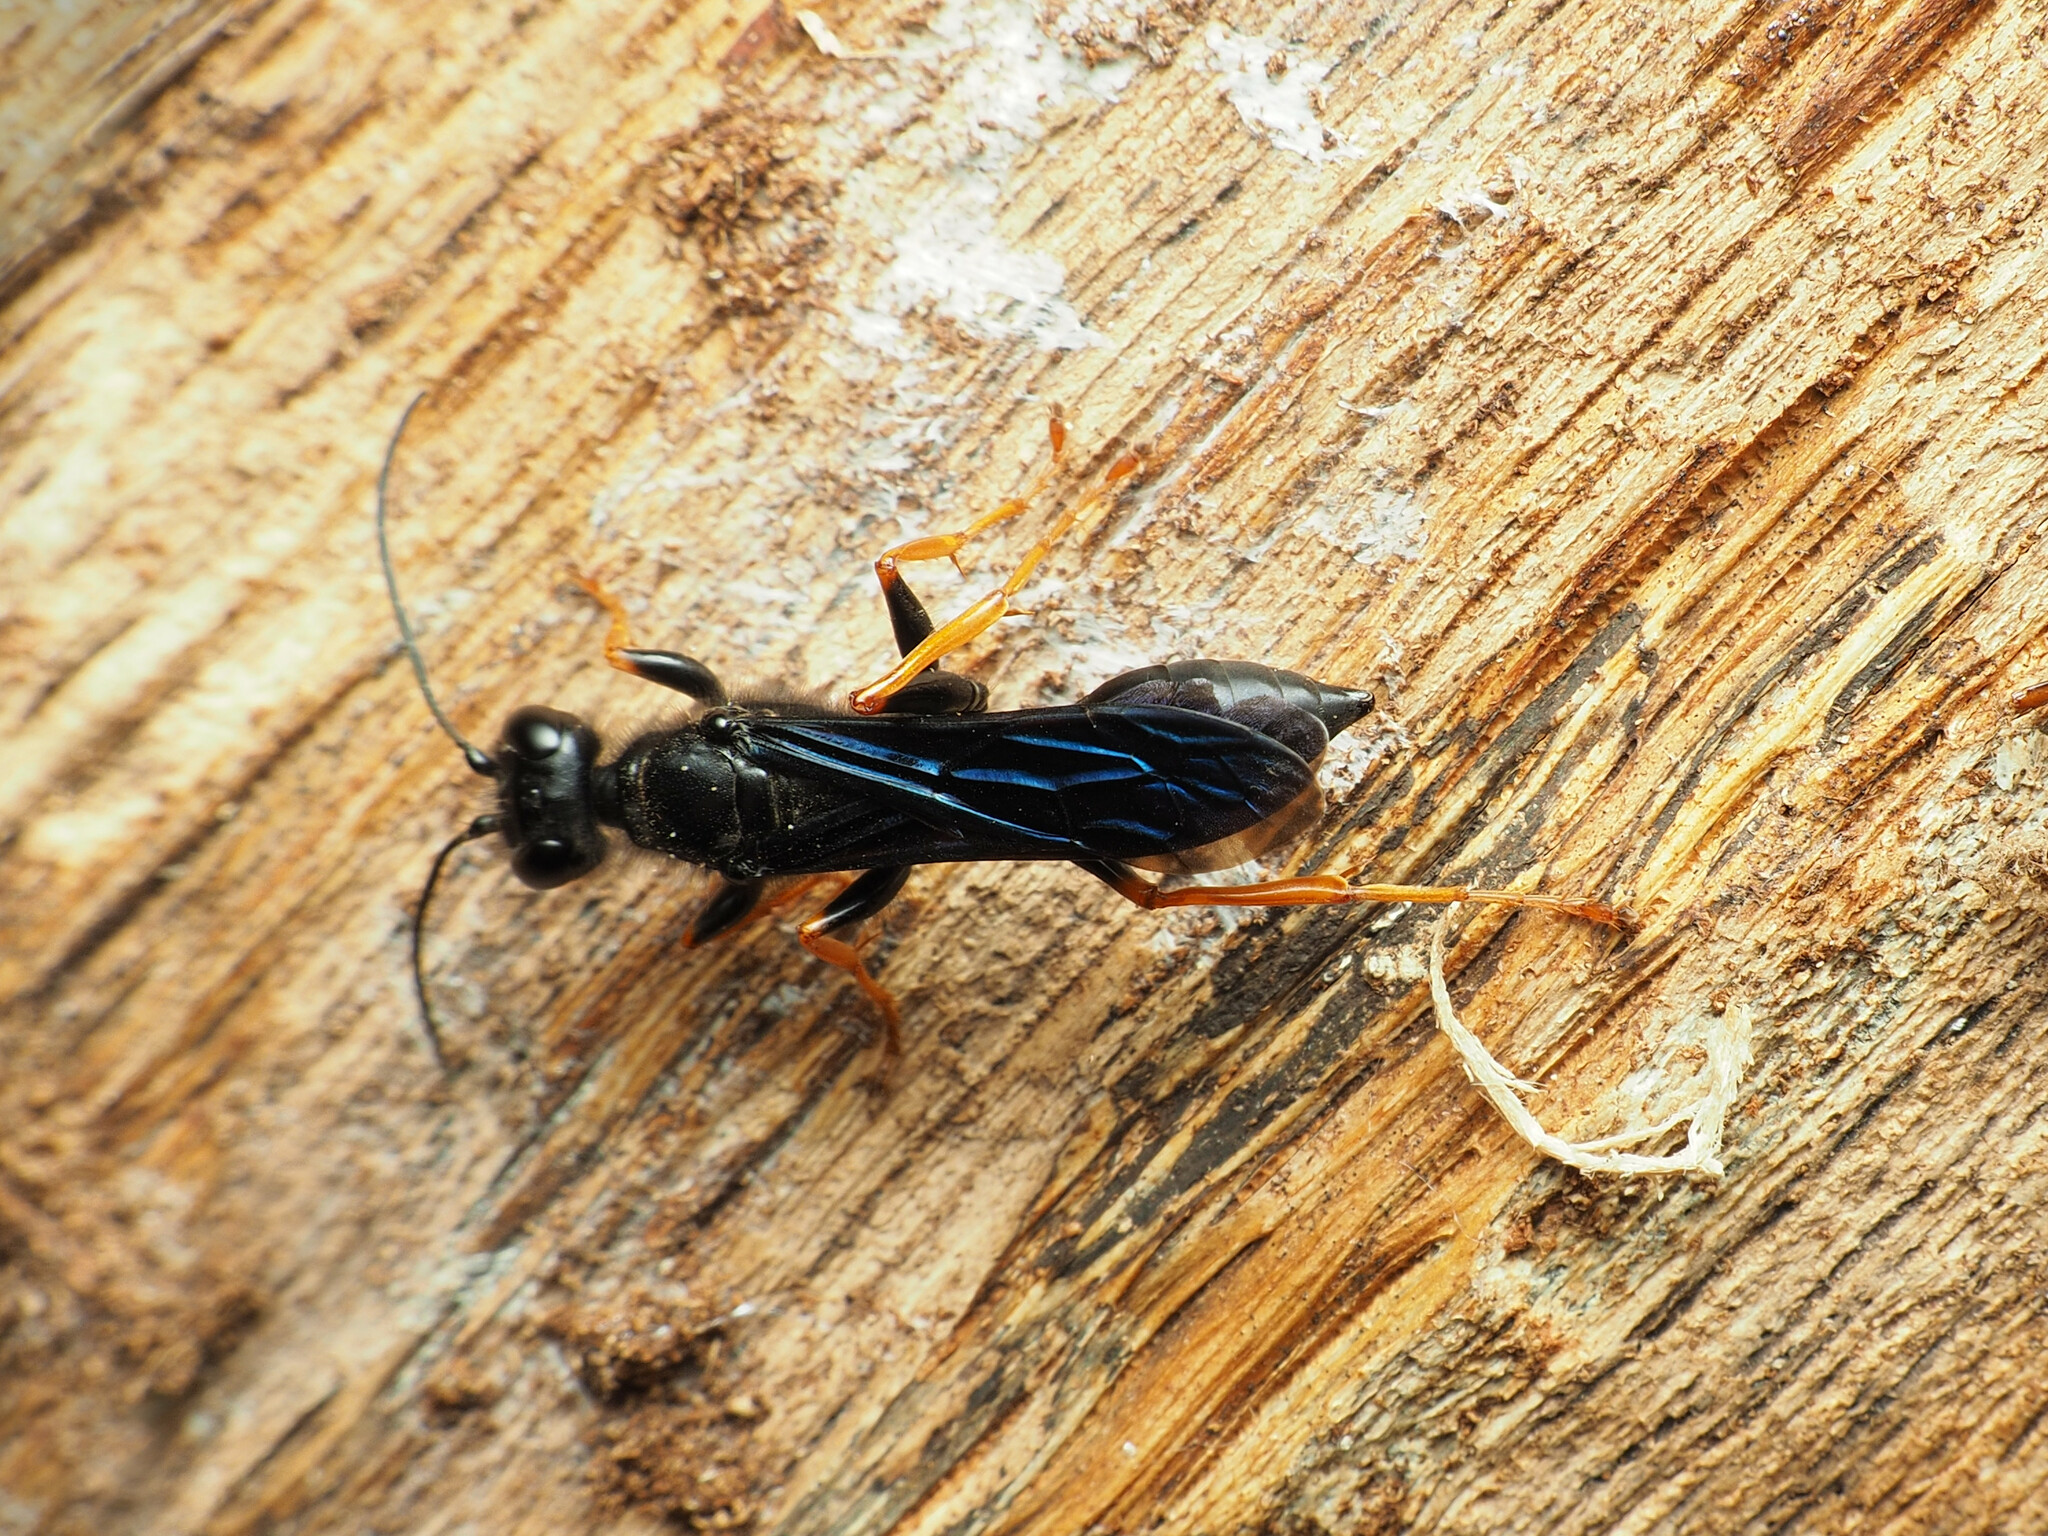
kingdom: Animalia
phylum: Arthropoda
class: Insecta
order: Hymenoptera
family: Sphecidae
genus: Podium
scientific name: Podium luctuosum
